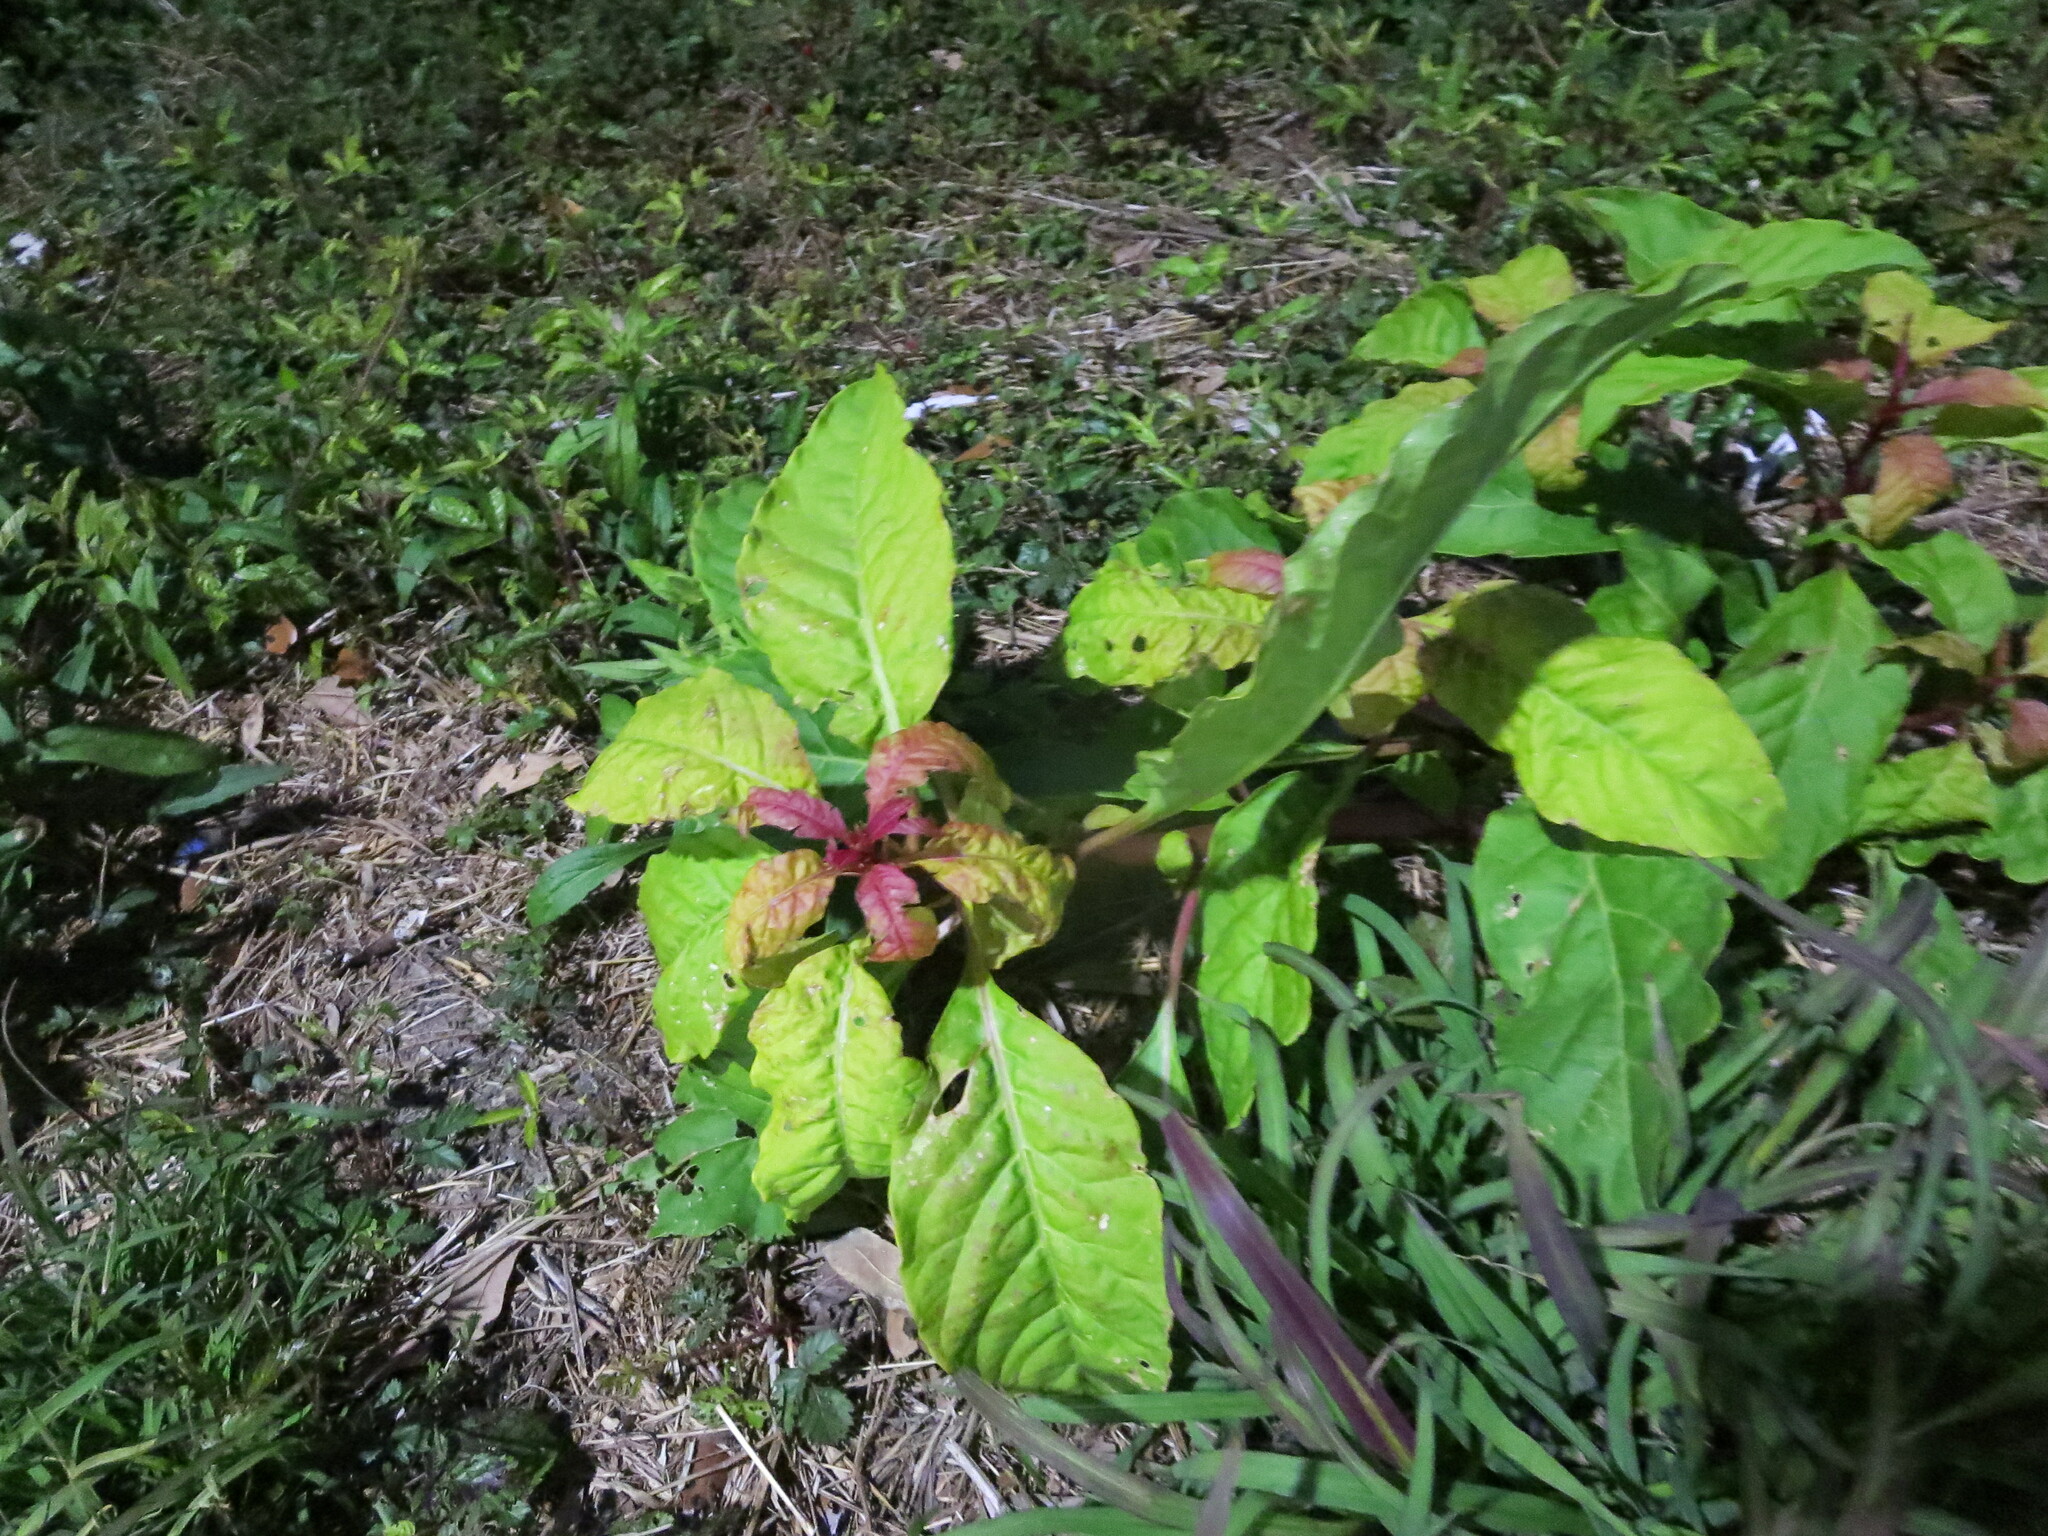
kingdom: Plantae
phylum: Tracheophyta
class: Magnoliopsida
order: Caryophyllales
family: Phytolaccaceae
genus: Phytolacca
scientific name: Phytolacca americana
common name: American pokeweed
